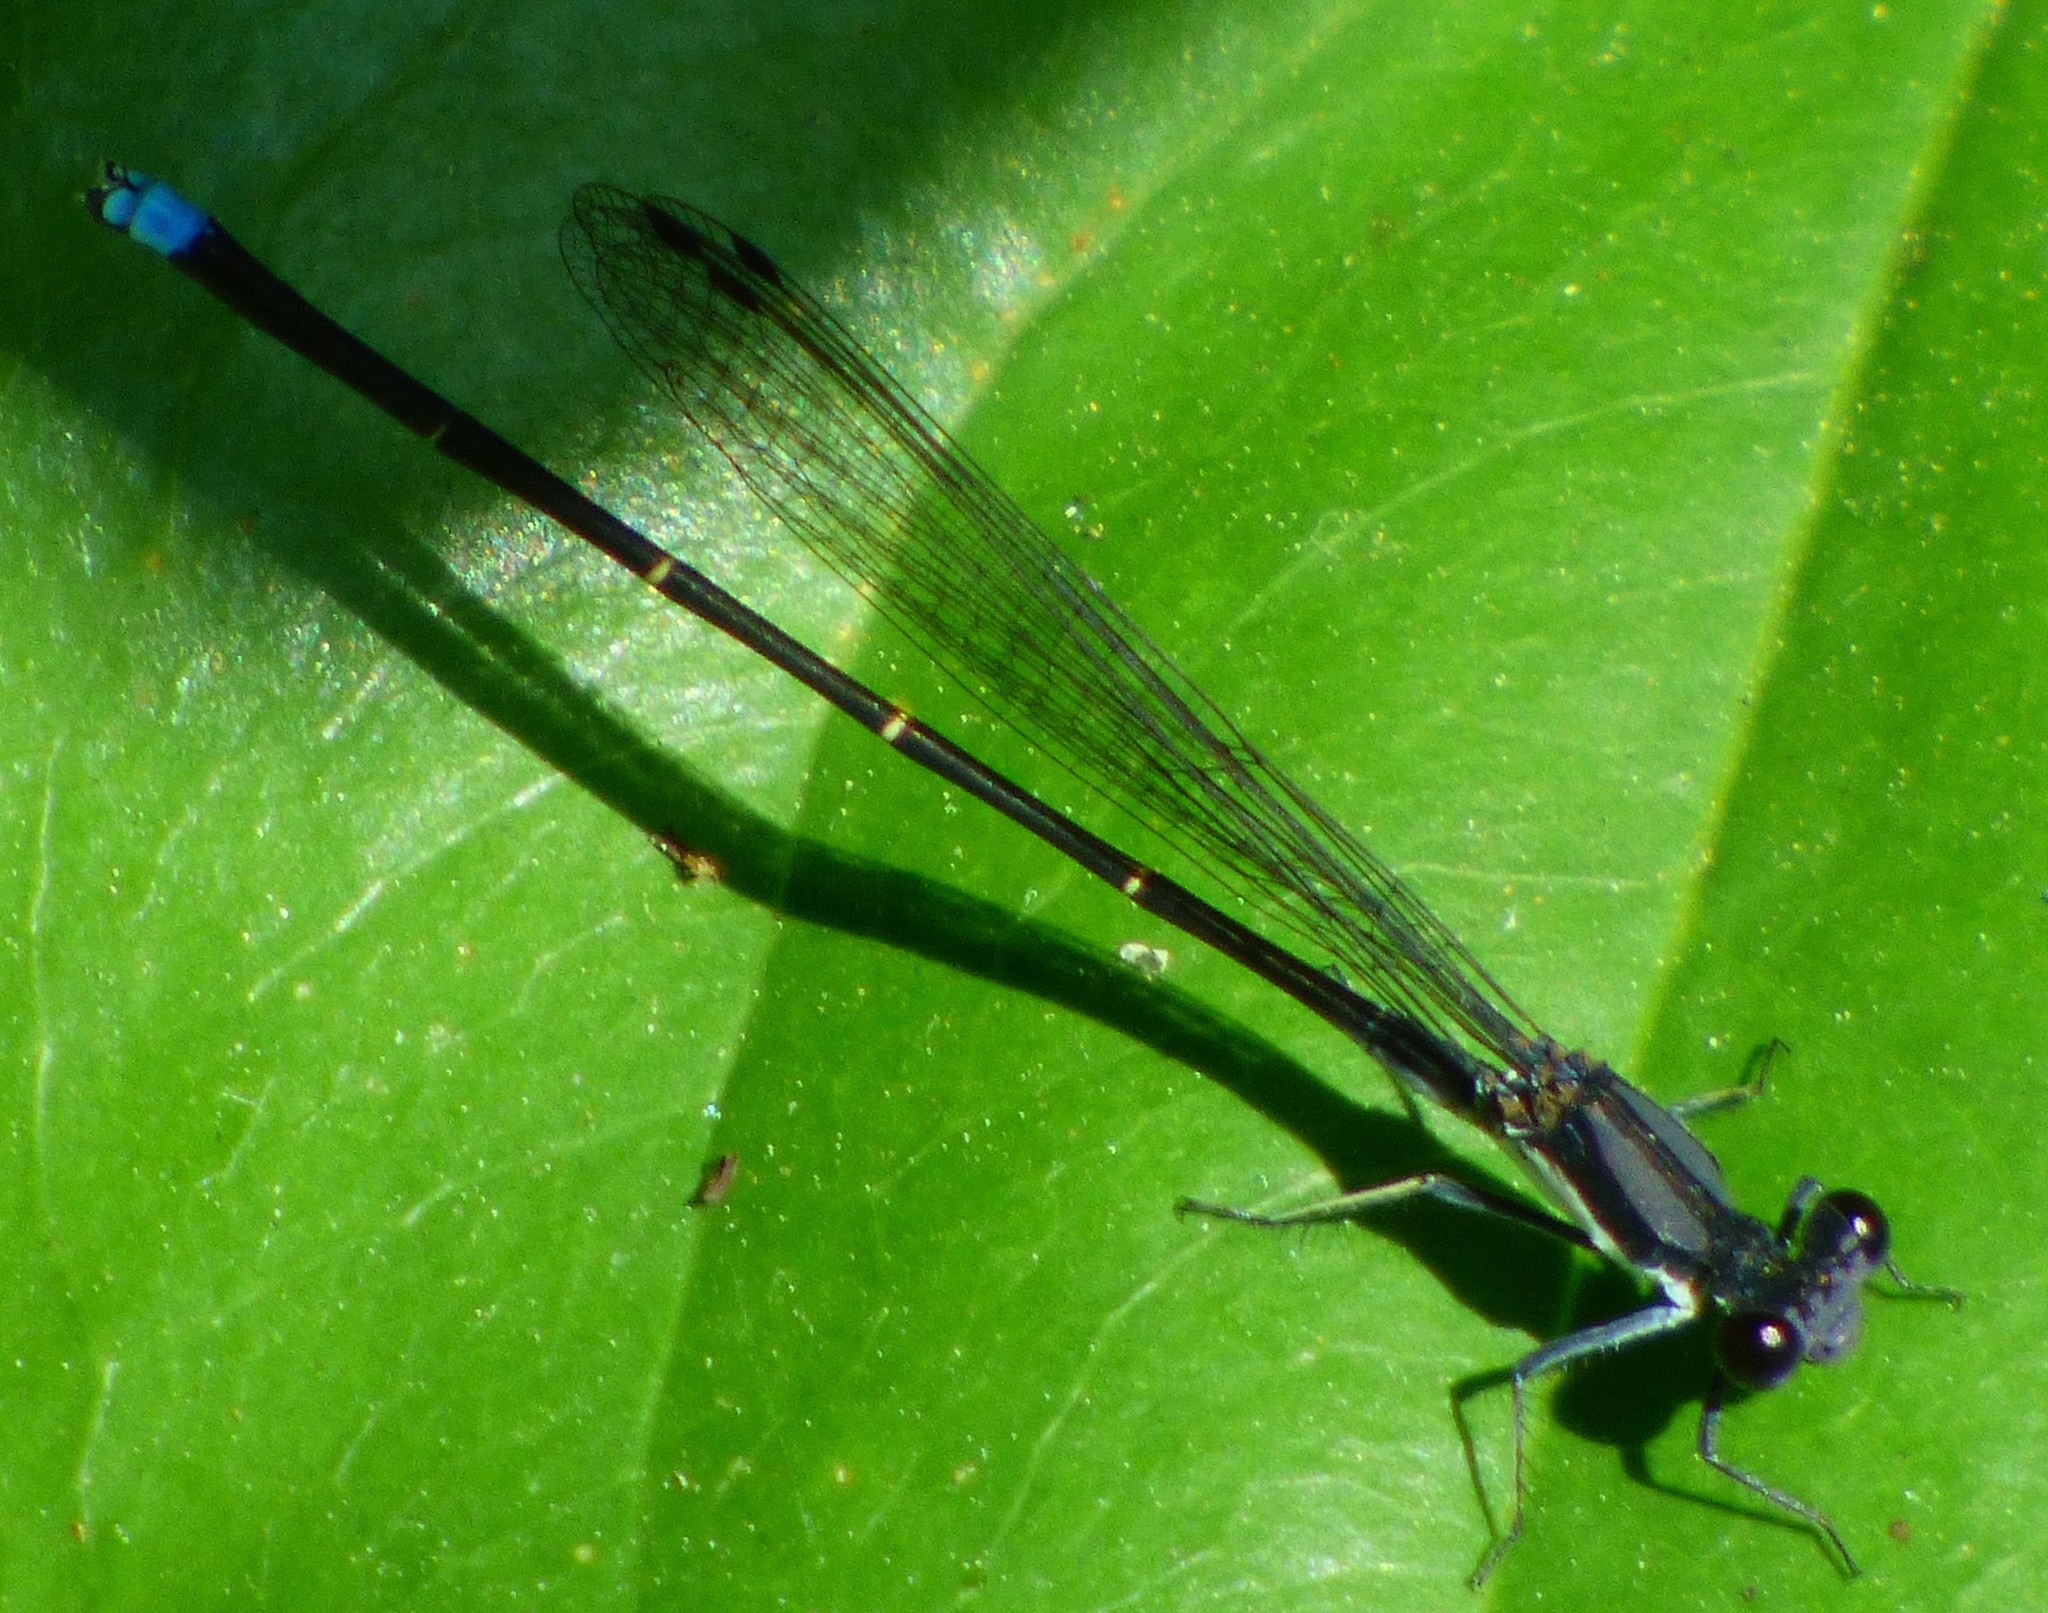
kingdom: Animalia
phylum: Arthropoda
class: Insecta
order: Odonata
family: Coenagrionidae
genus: Argia
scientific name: Argia tibialis
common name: Blue-tipped dancer
